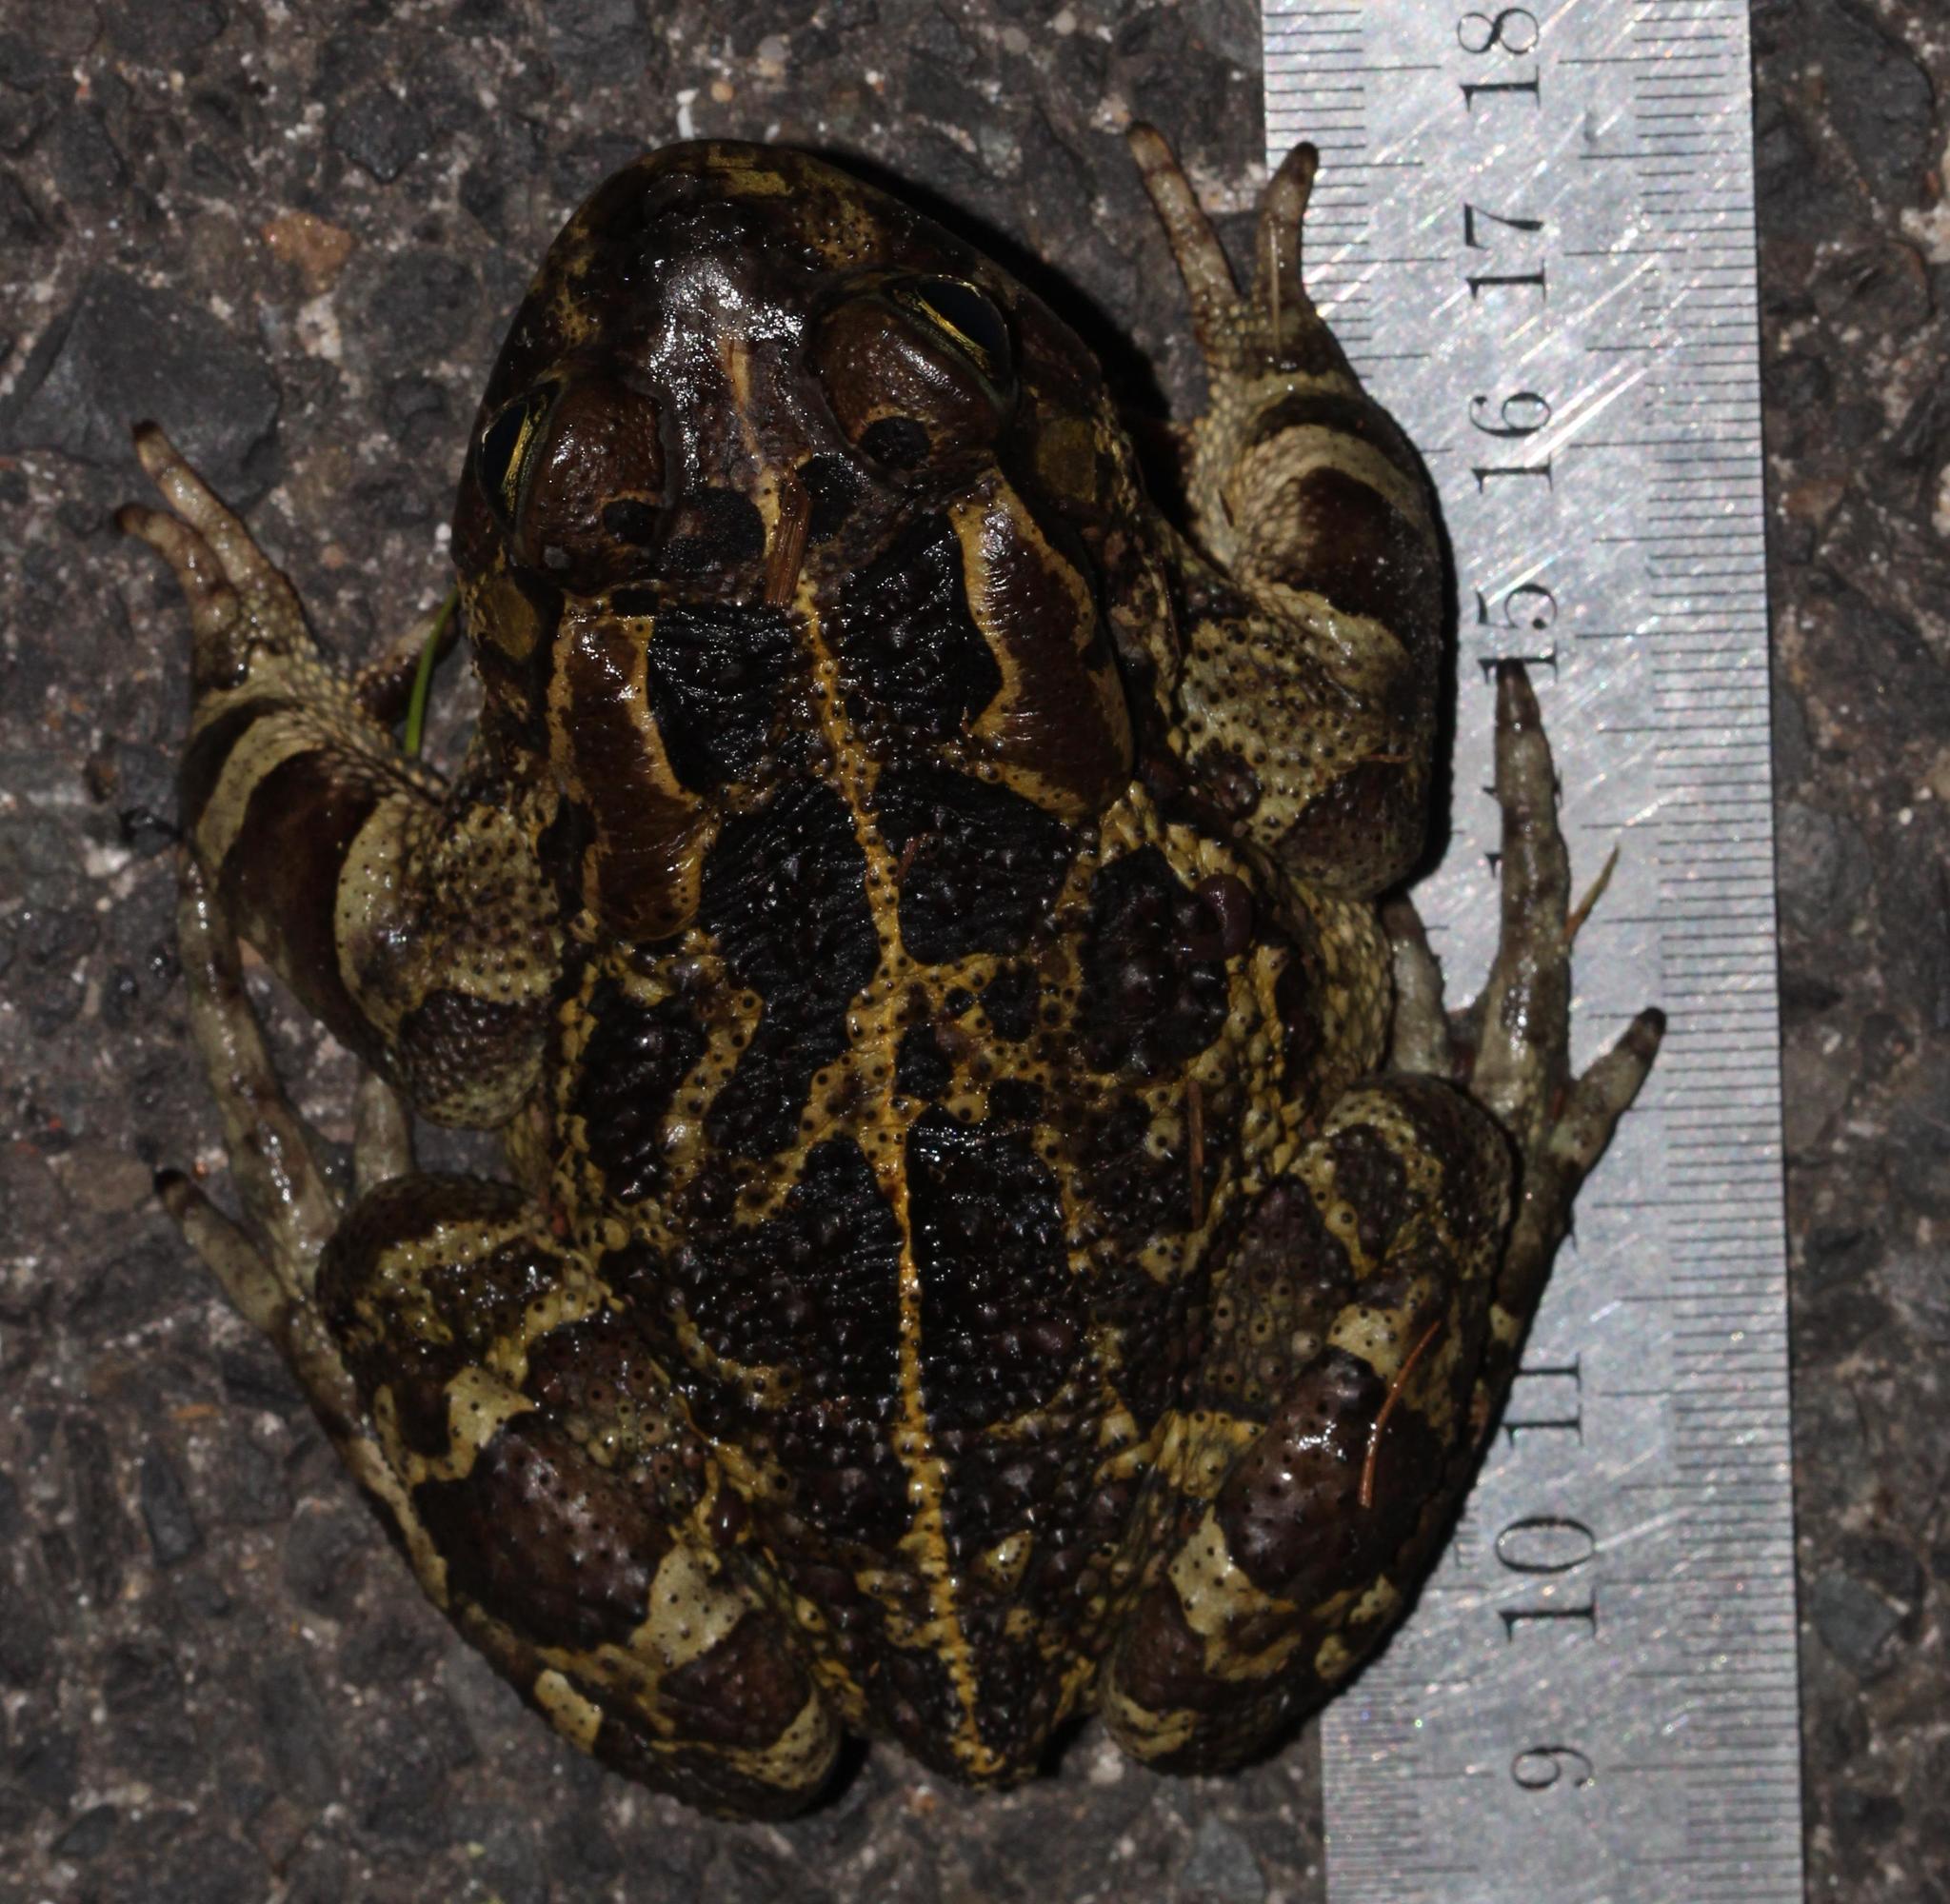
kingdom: Animalia
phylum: Chordata
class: Amphibia
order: Anura
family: Bufonidae
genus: Sclerophrys
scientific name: Sclerophrys pantherina
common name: Panther toad
